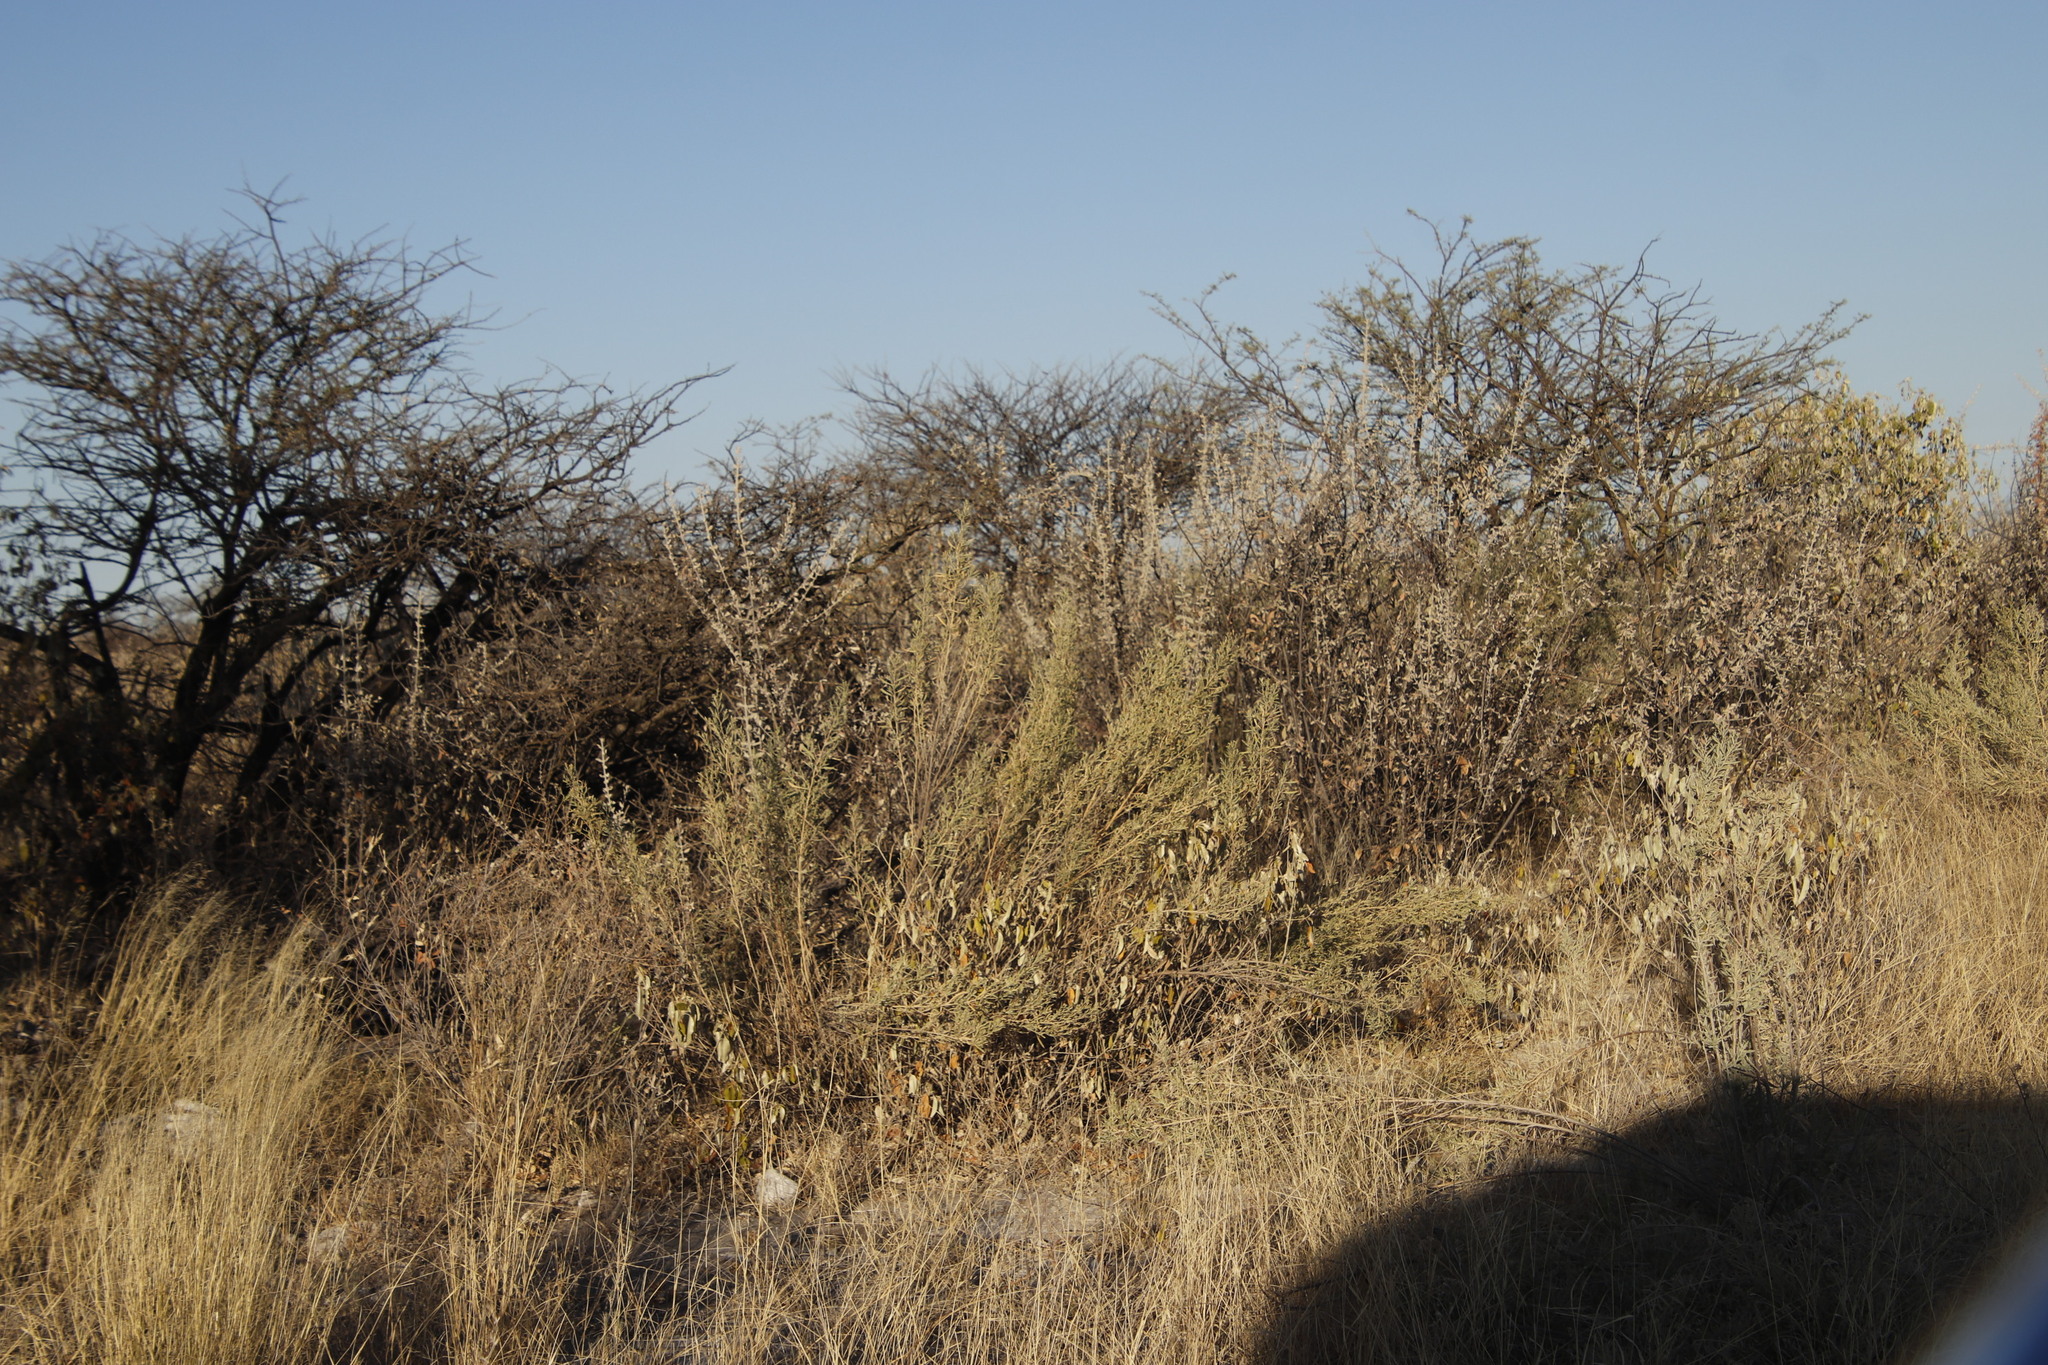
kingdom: Plantae
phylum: Tracheophyta
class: Magnoliopsida
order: Lamiales
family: Bignoniaceae
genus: Catophractes
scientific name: Catophractes alexandri
